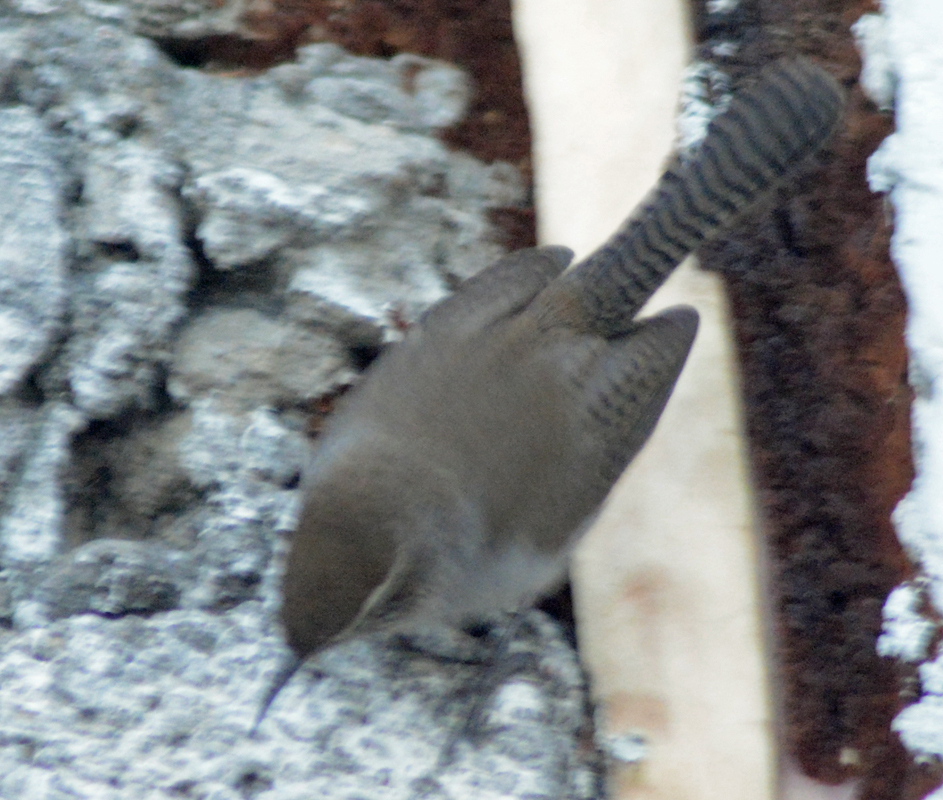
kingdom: Animalia
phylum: Chordata
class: Aves
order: Passeriformes
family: Troglodytidae
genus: Thryomanes
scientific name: Thryomanes bewickii
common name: Bewick's wren
